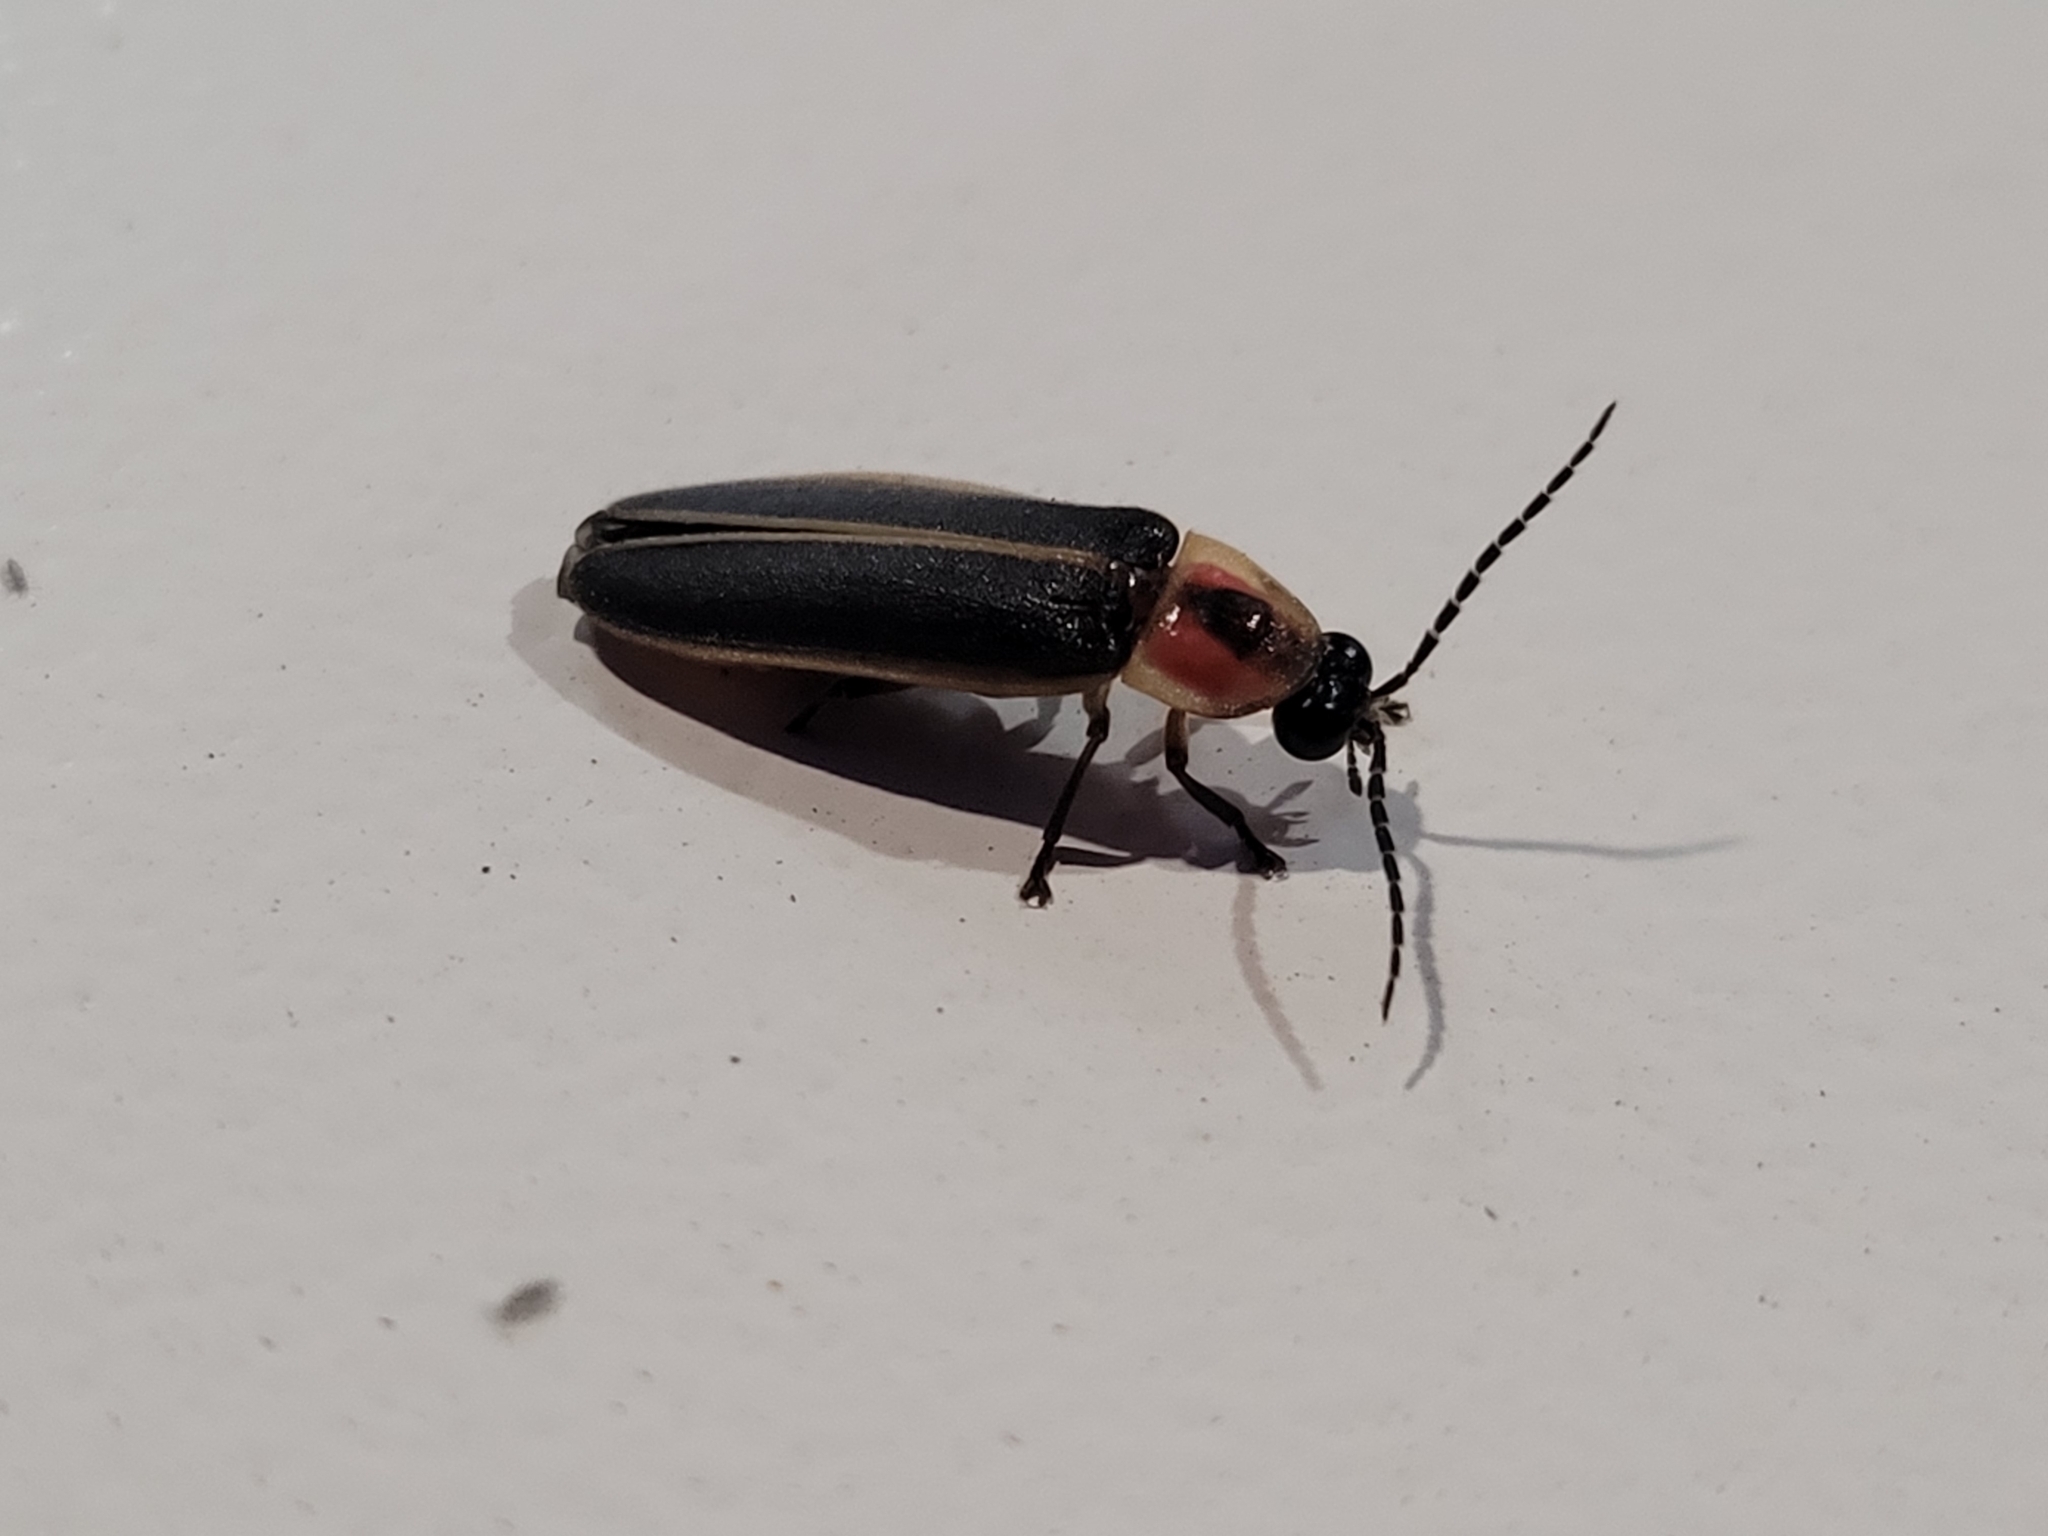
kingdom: Animalia
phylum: Arthropoda
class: Insecta
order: Coleoptera
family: Lampyridae
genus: Photinus
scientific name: Photinus pyralis
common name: Big dipper firefly
